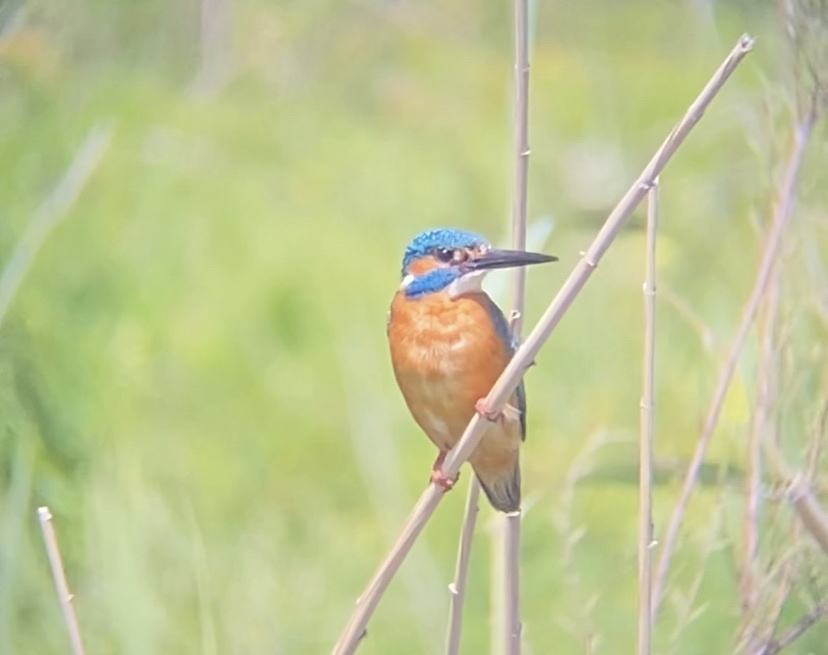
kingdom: Animalia
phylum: Chordata
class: Aves
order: Coraciiformes
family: Alcedinidae
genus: Alcedo
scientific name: Alcedo atthis
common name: Common kingfisher
